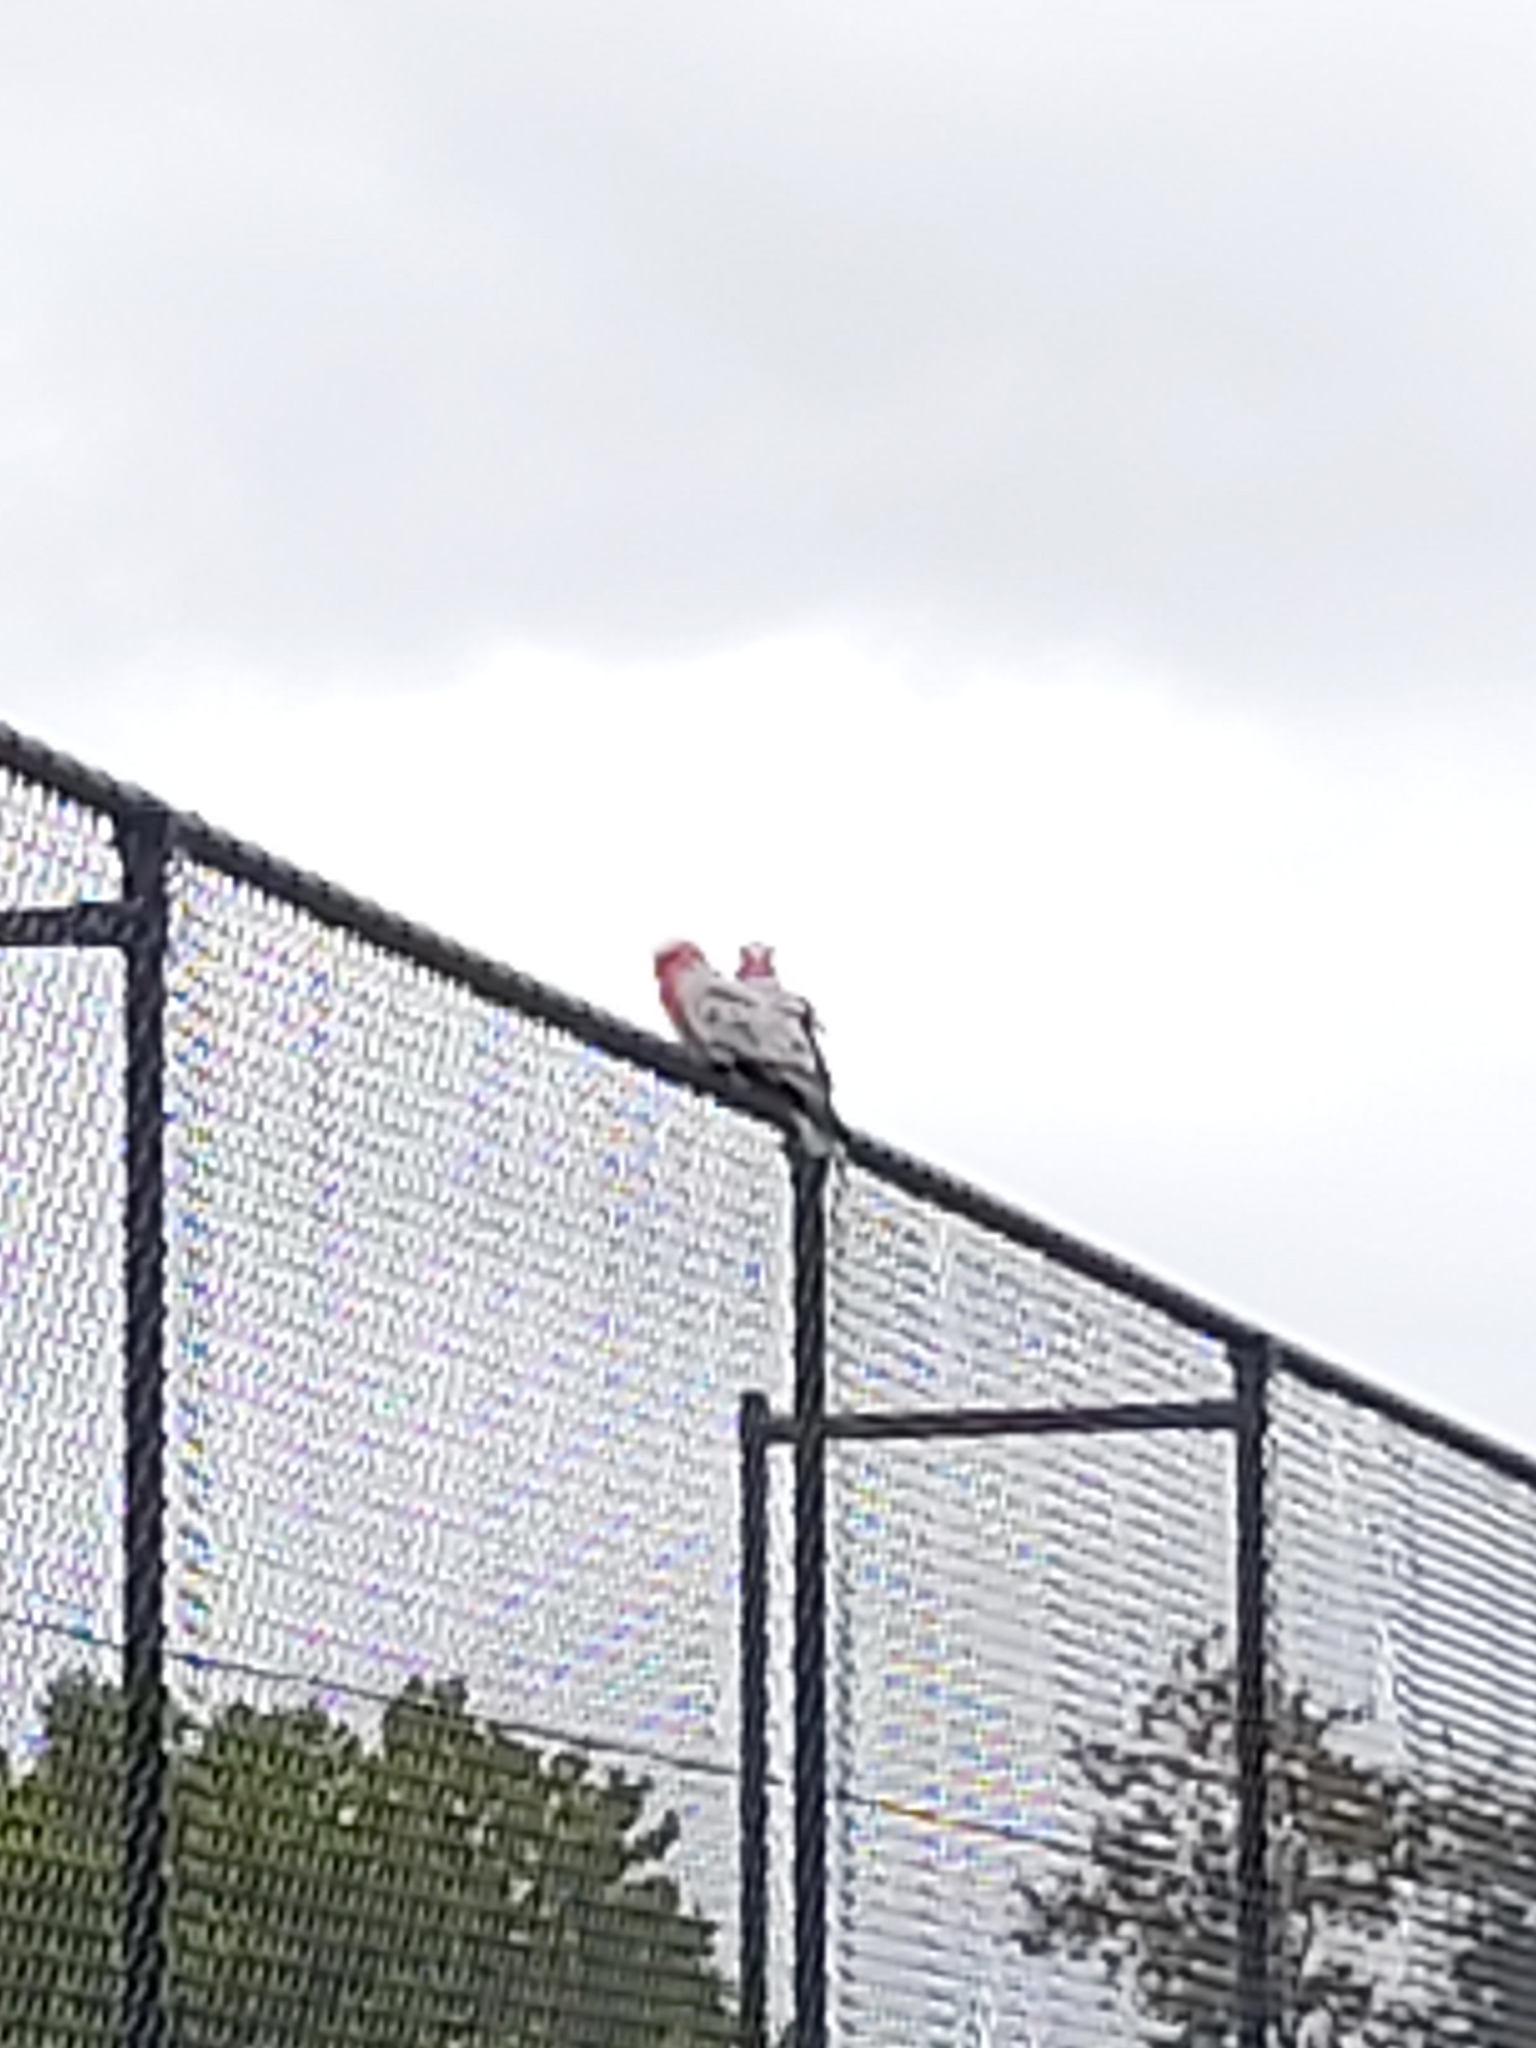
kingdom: Animalia
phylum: Chordata
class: Aves
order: Psittaciformes
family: Psittacidae
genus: Eolophus
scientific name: Eolophus roseicapilla
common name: Galah
